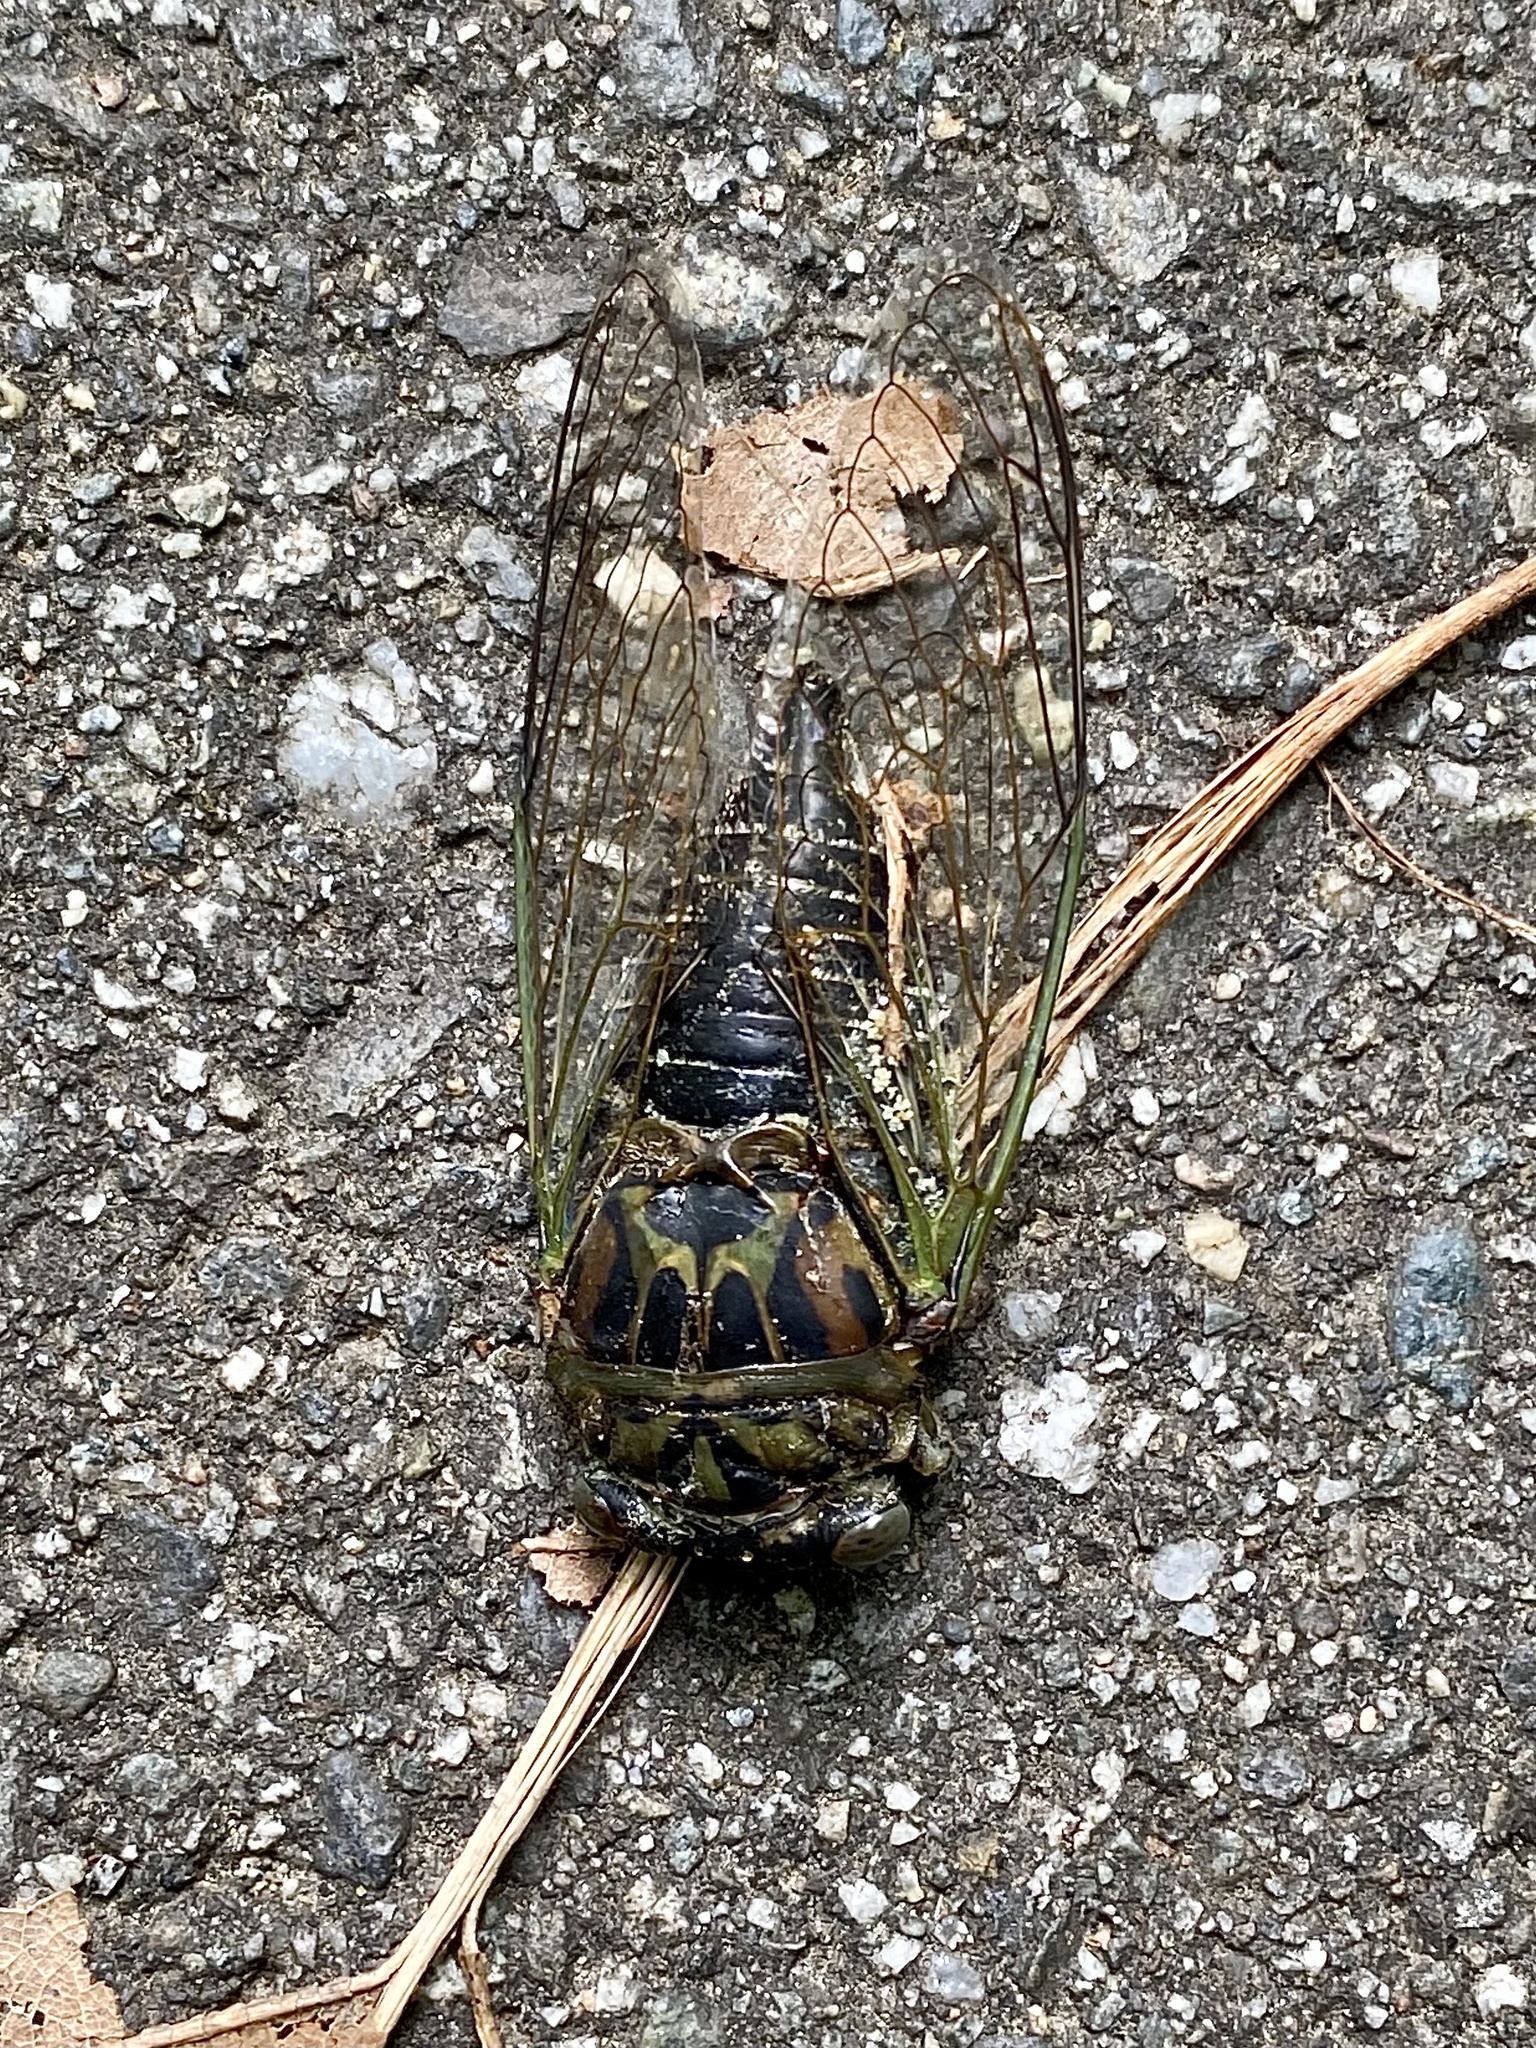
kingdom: Animalia
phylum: Arthropoda
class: Insecta
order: Hemiptera
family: Cicadidae
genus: Neotibicen
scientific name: Neotibicen canicularis
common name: God-day cicada
